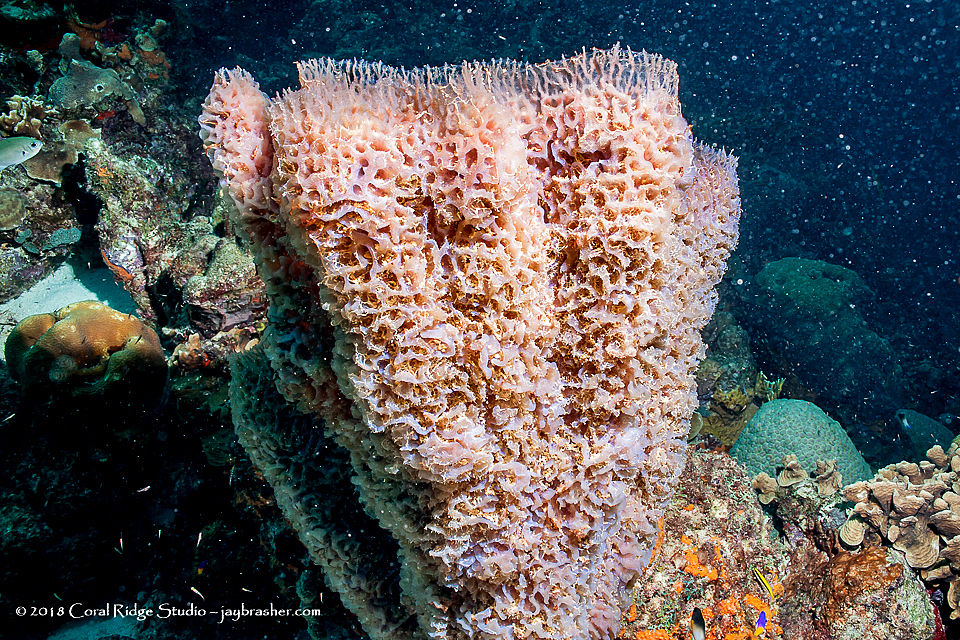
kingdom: Animalia
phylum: Porifera
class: Demospongiae
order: Haplosclerida
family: Callyspongiidae
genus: Callyspongia
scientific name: Callyspongia plicifera
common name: Azure vase sponge
